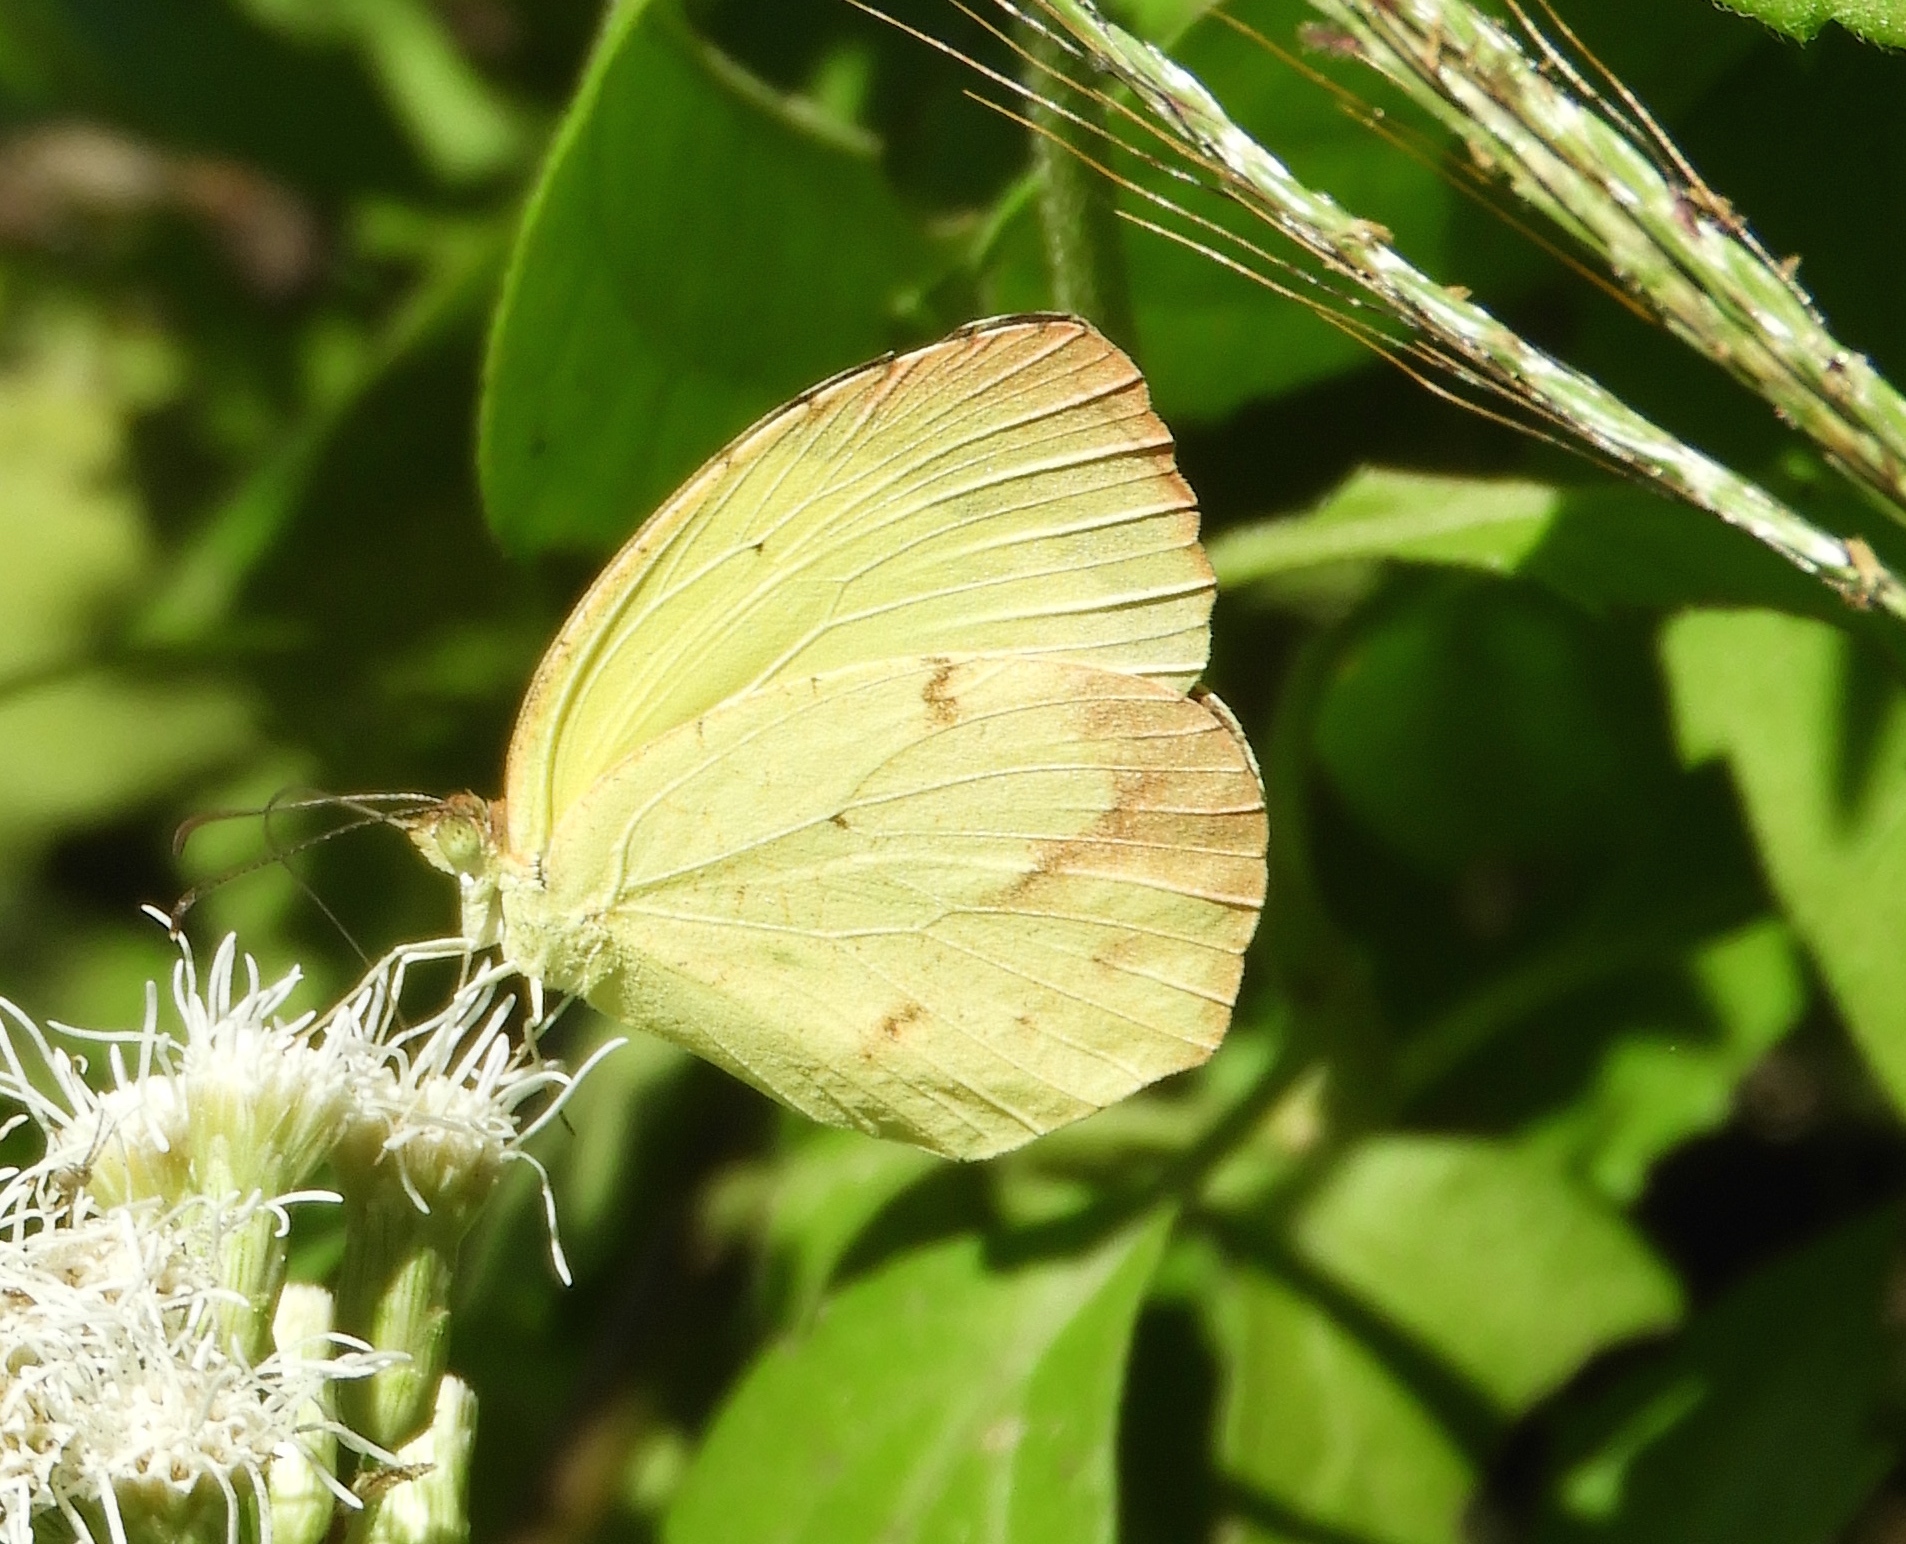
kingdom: Animalia
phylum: Arthropoda
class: Insecta
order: Lepidoptera
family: Pieridae
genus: Abaeis
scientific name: Abaeis boisduvaliana
